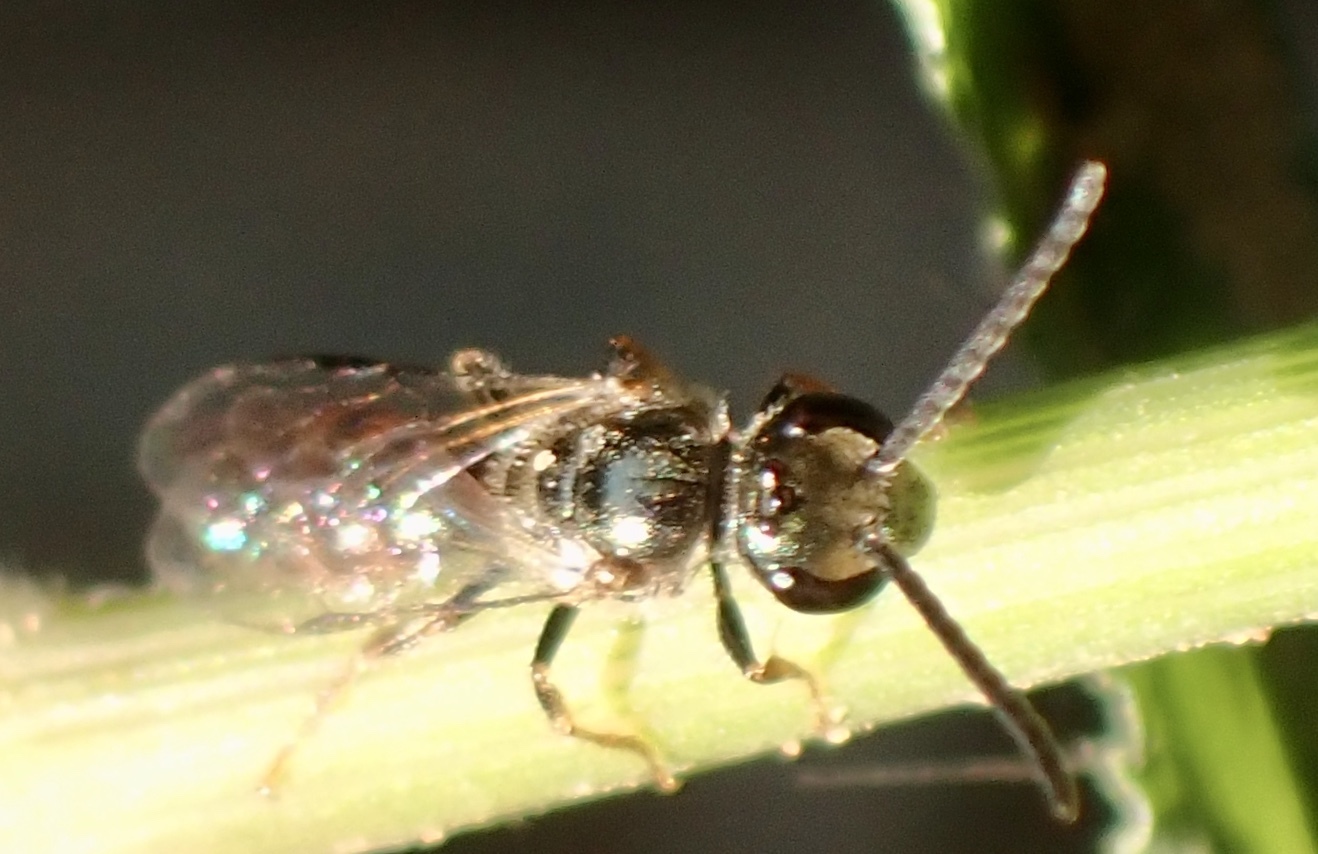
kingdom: Animalia
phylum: Arthropoda
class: Insecta
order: Hymenoptera
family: Halictidae
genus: Dialictus
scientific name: Dialictus
